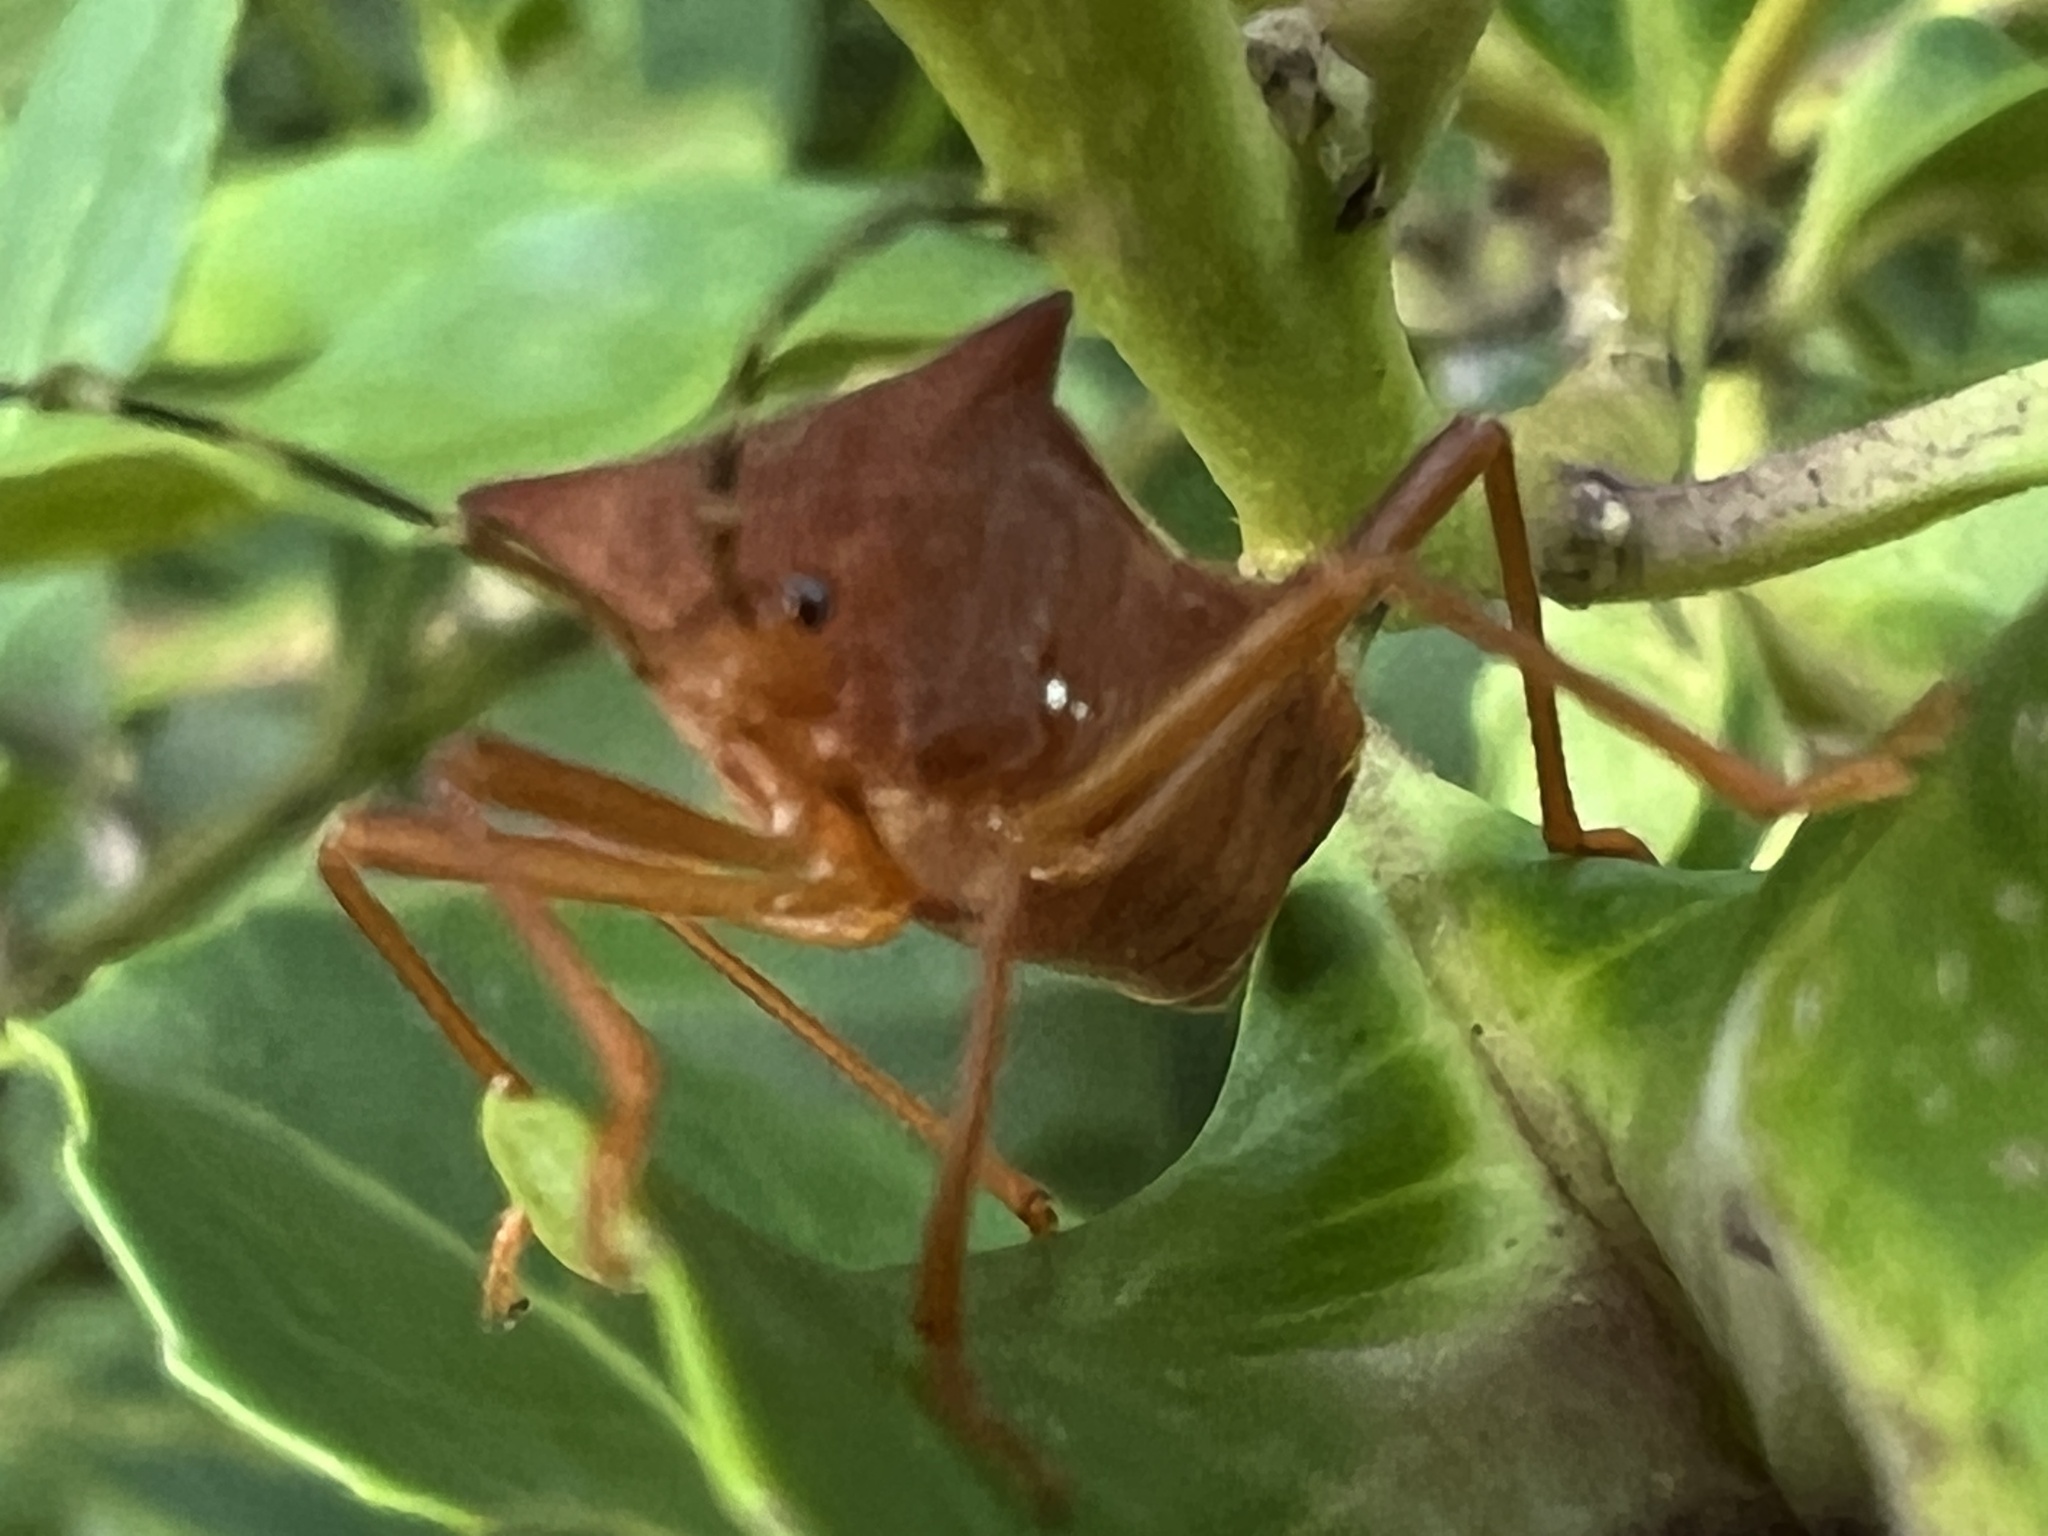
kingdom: Animalia
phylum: Arthropoda
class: Insecta
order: Hemiptera
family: Coreidae
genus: Anasa
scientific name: Anasa varicornis
